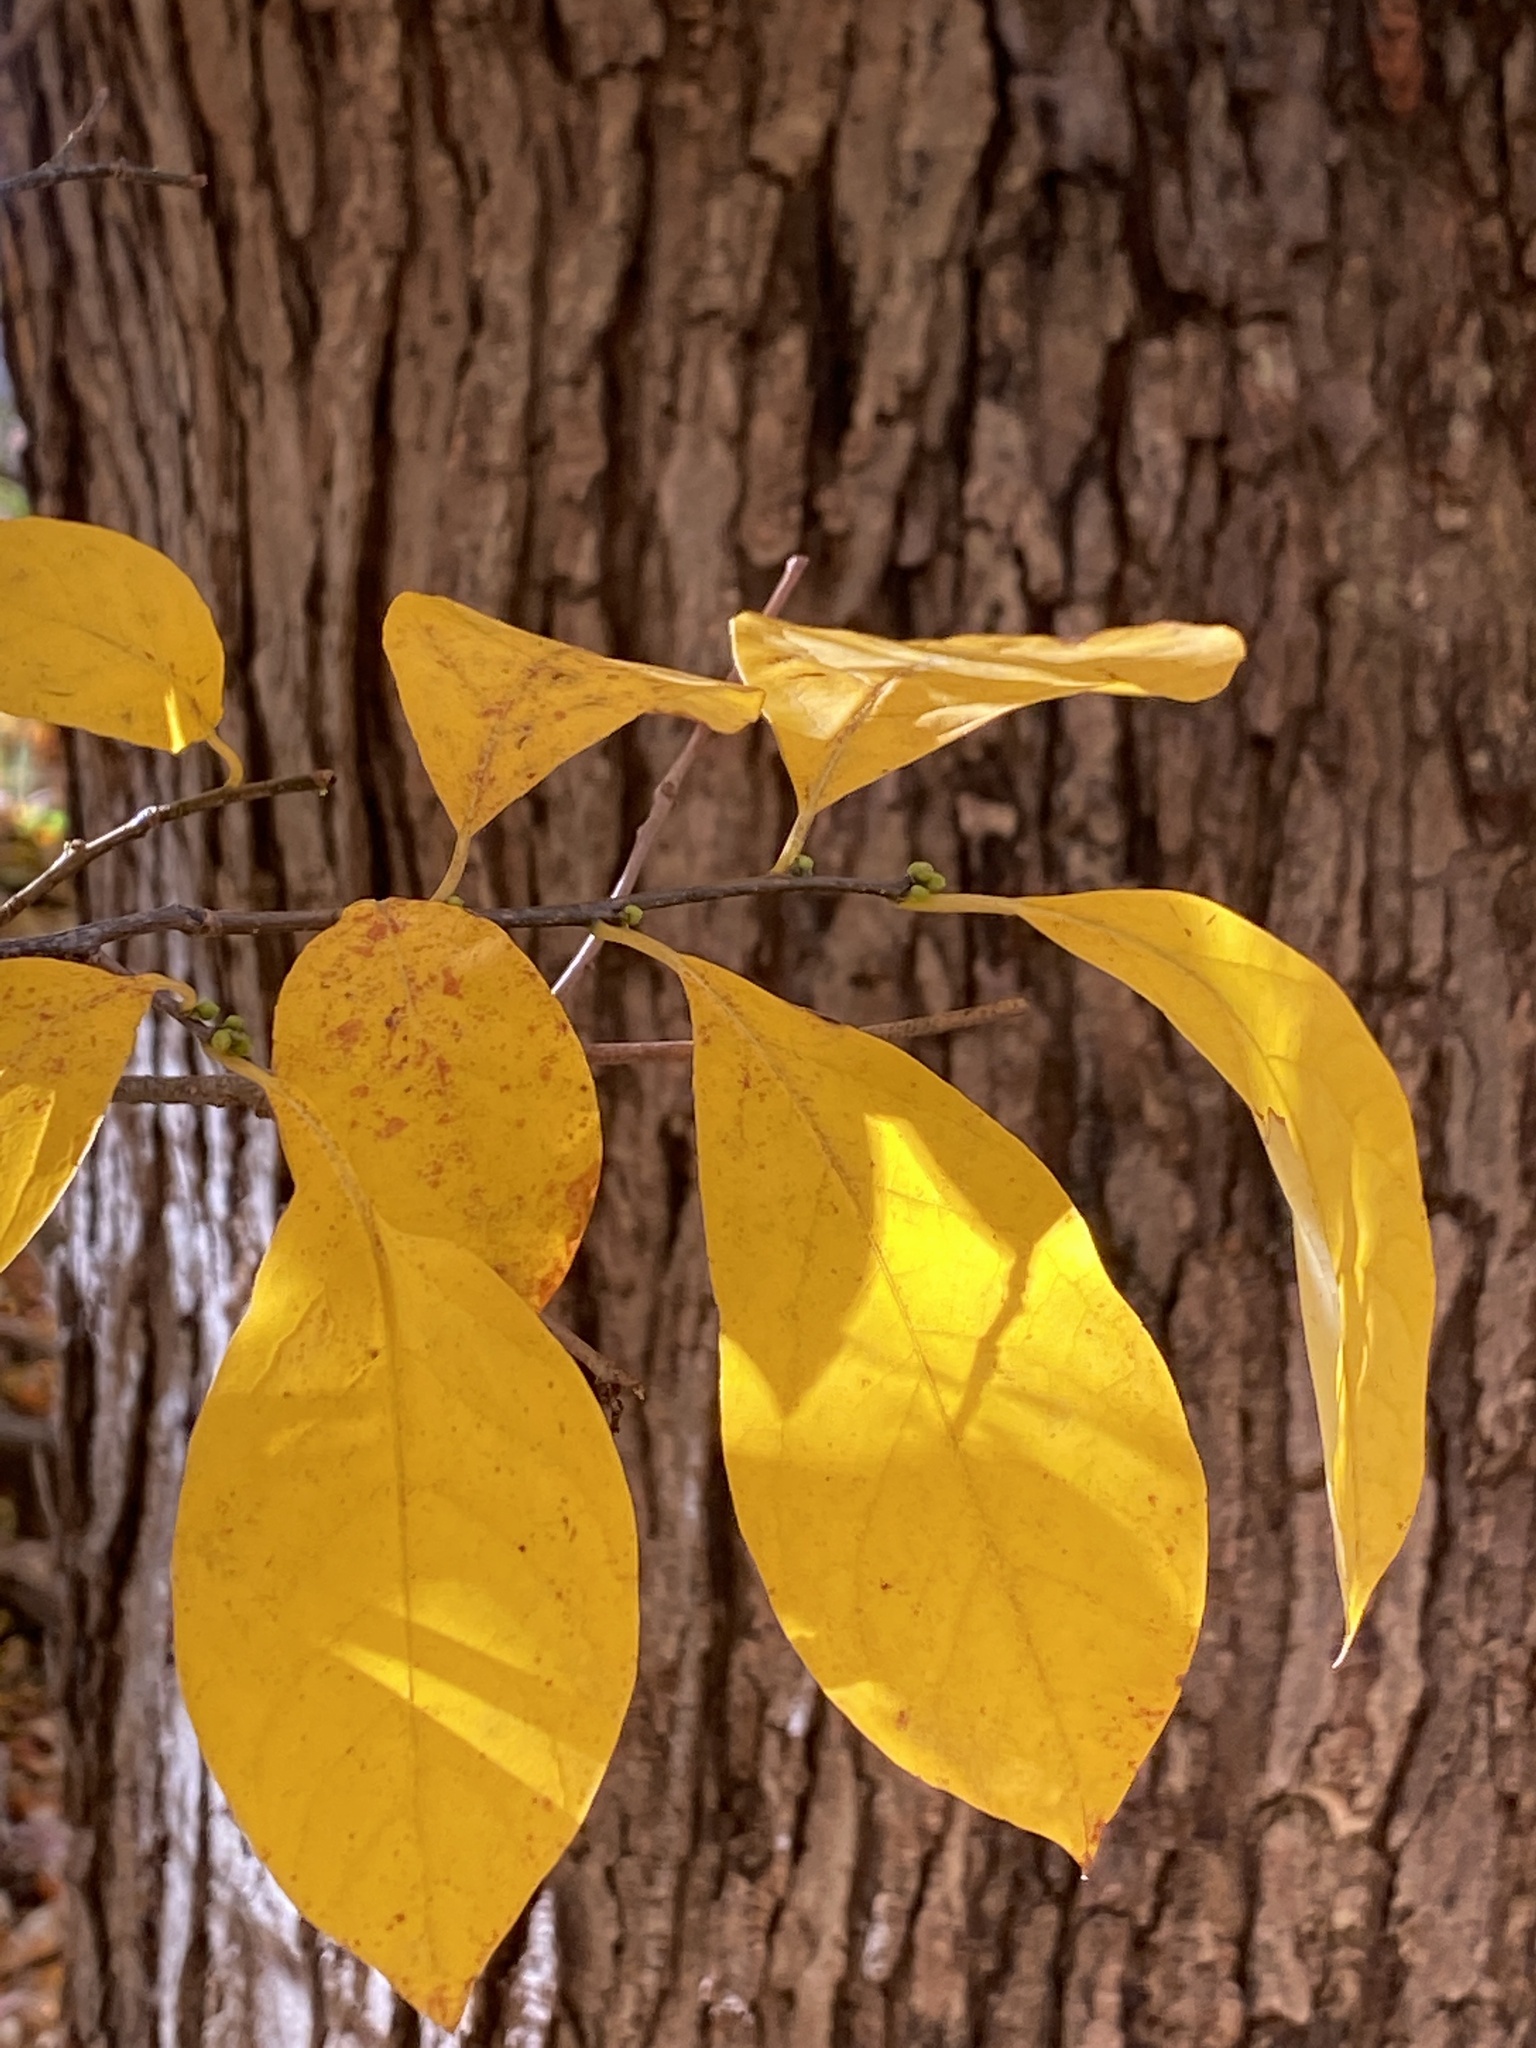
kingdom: Plantae
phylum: Tracheophyta
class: Magnoliopsida
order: Laurales
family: Lauraceae
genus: Lindera
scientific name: Lindera benzoin
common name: Spicebush
